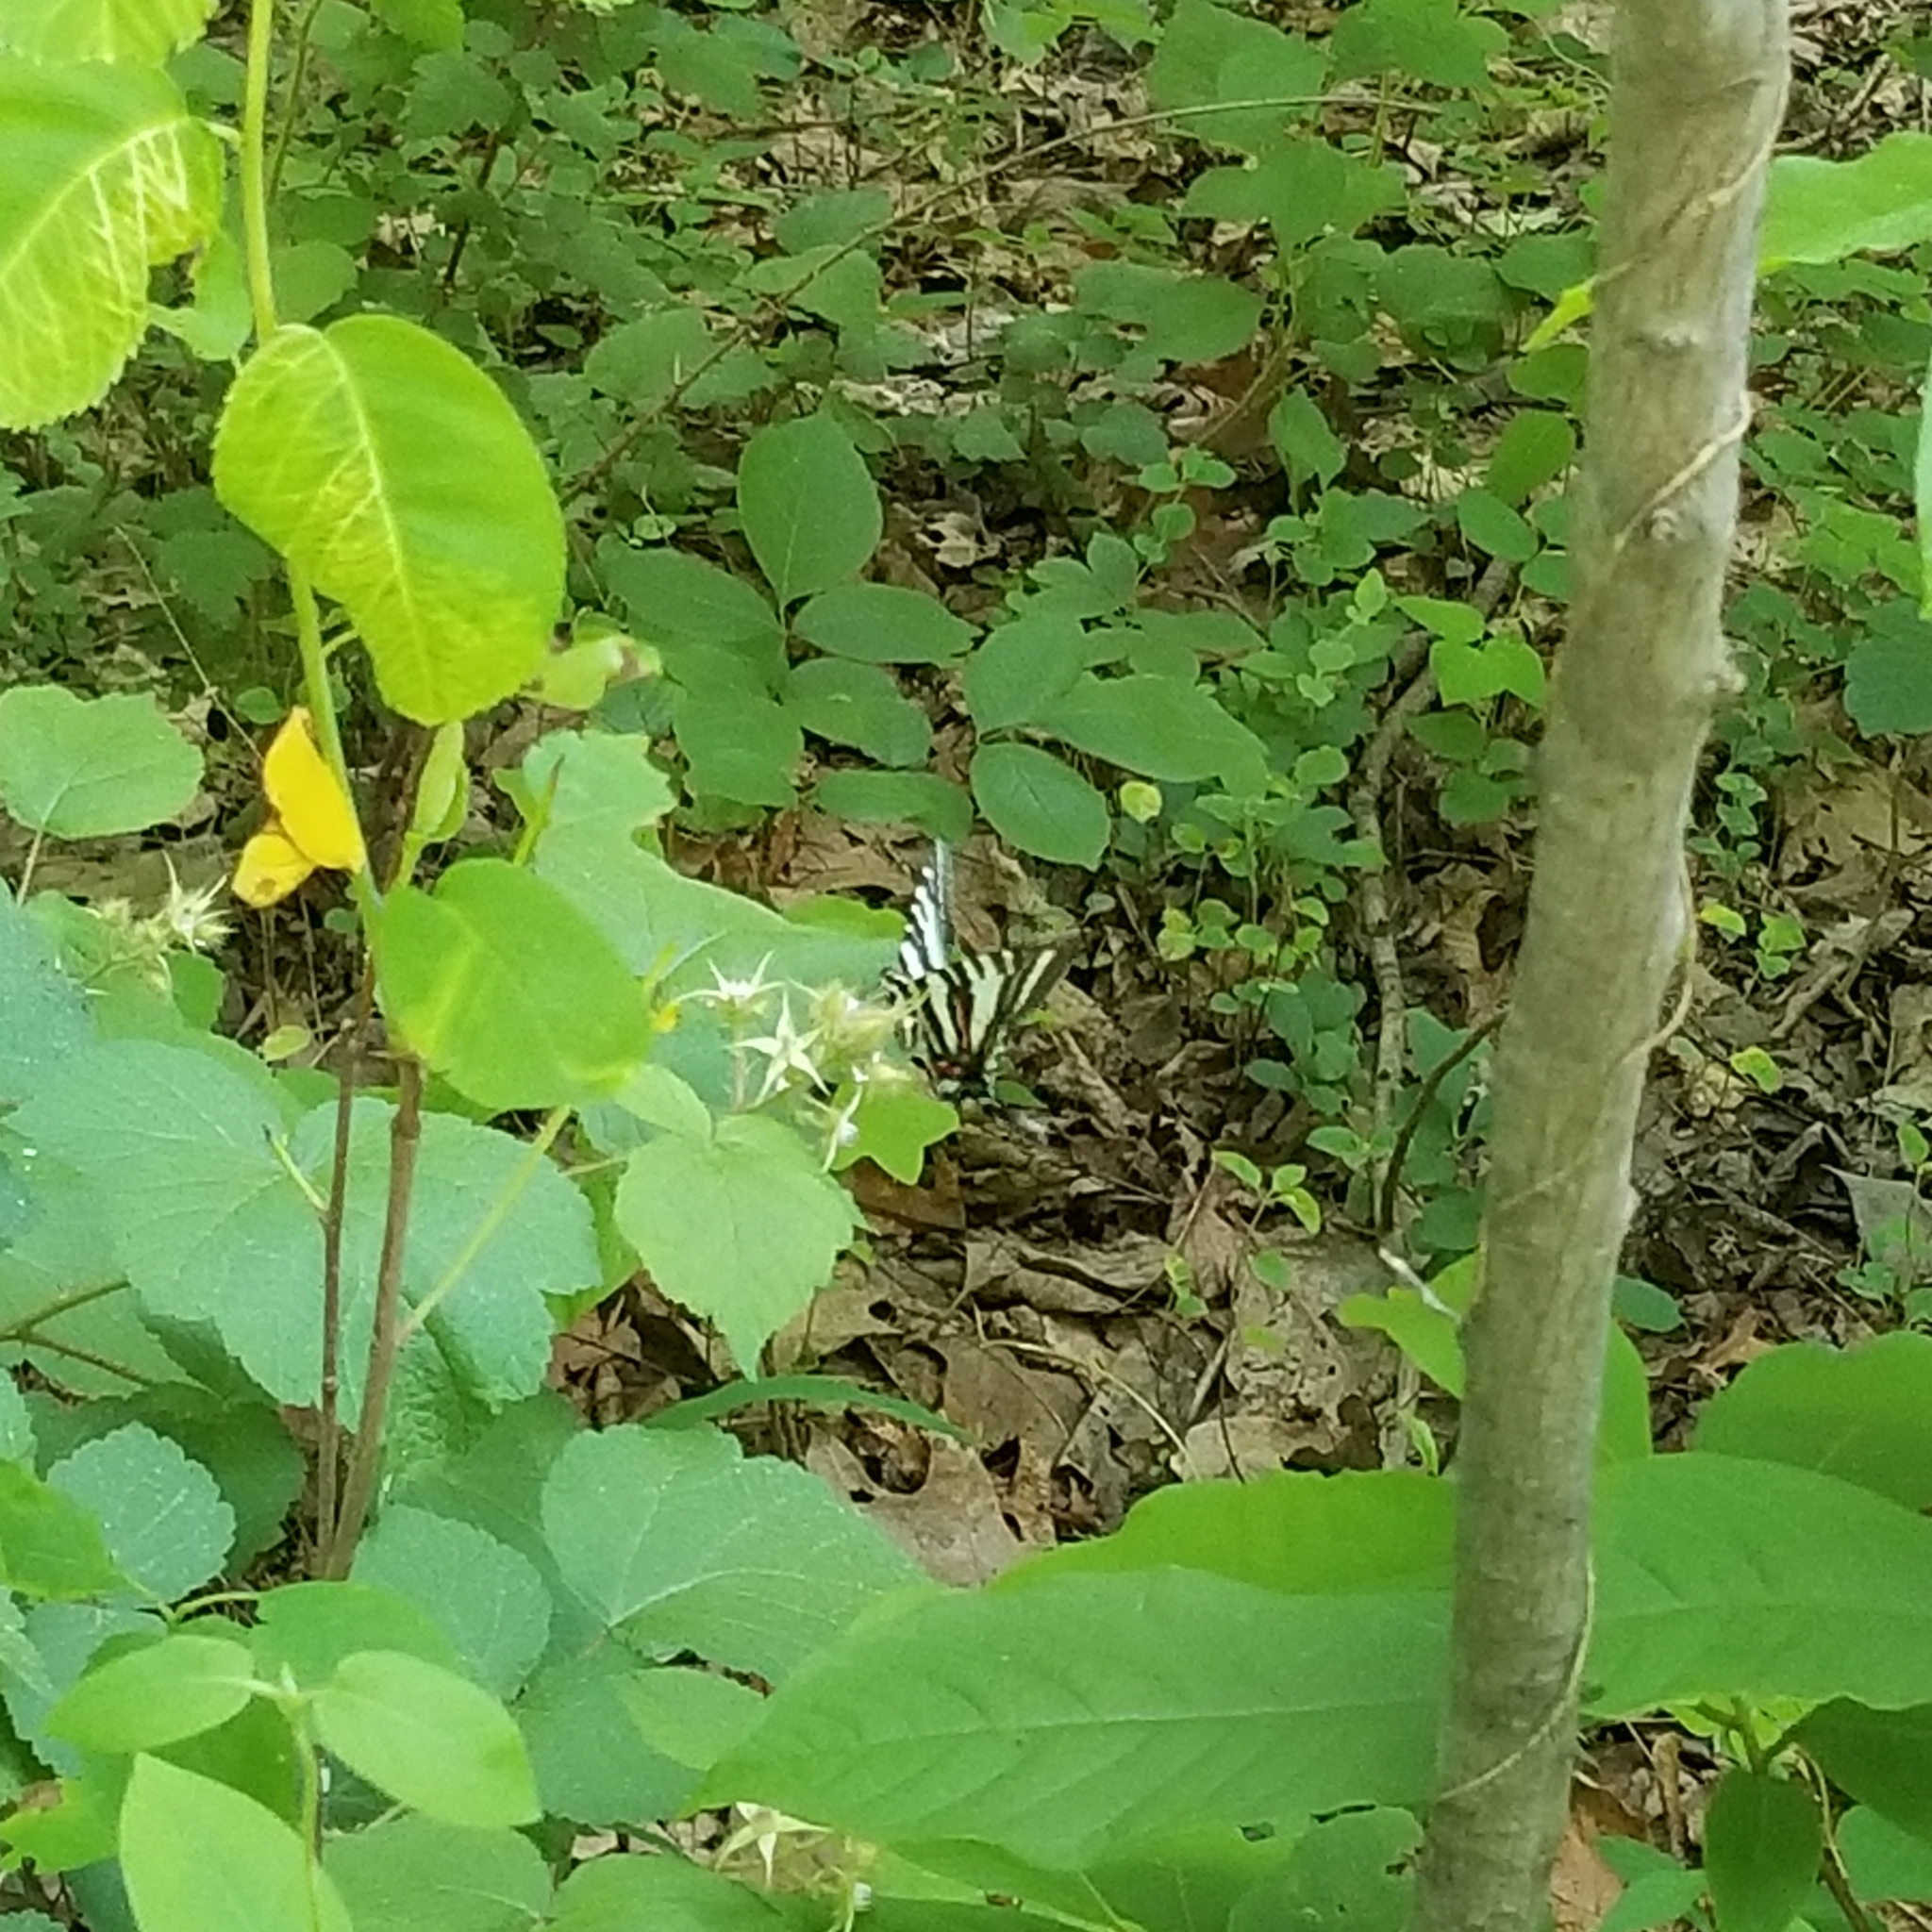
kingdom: Animalia
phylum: Arthropoda
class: Insecta
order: Lepidoptera
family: Papilionidae
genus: Protographium
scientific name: Protographium marcellus
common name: Zebra swallowtail
